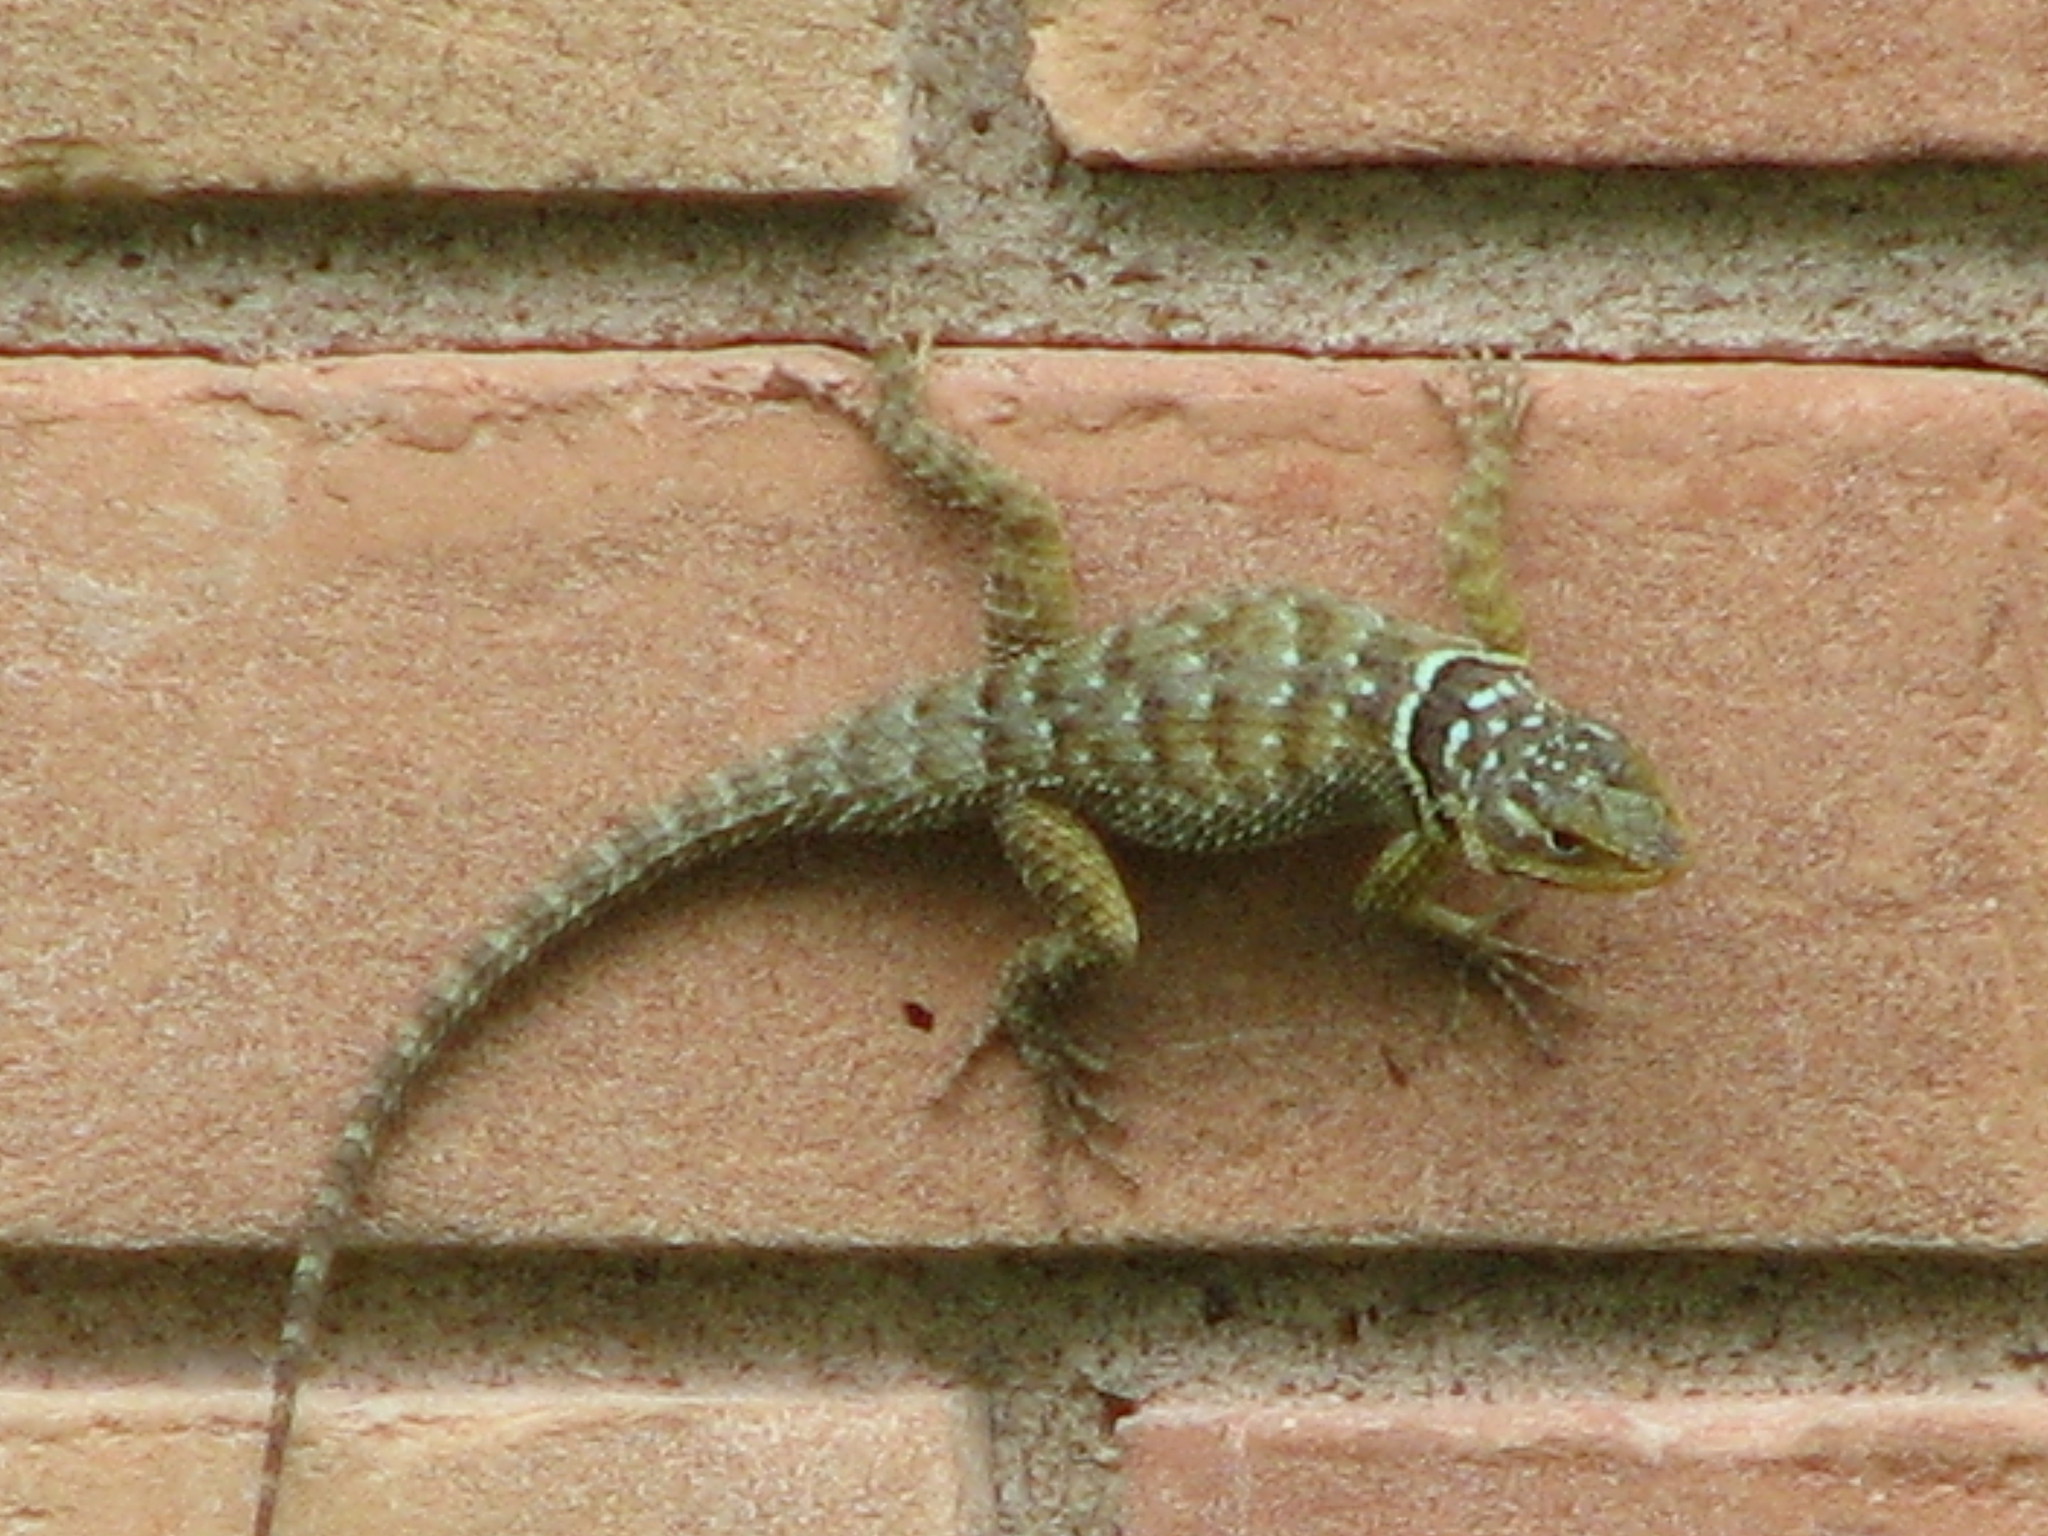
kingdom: Animalia
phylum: Chordata
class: Squamata
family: Phrynosomatidae
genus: Sceloporus
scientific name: Sceloporus cyanogenys
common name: Blue spiny lizard
